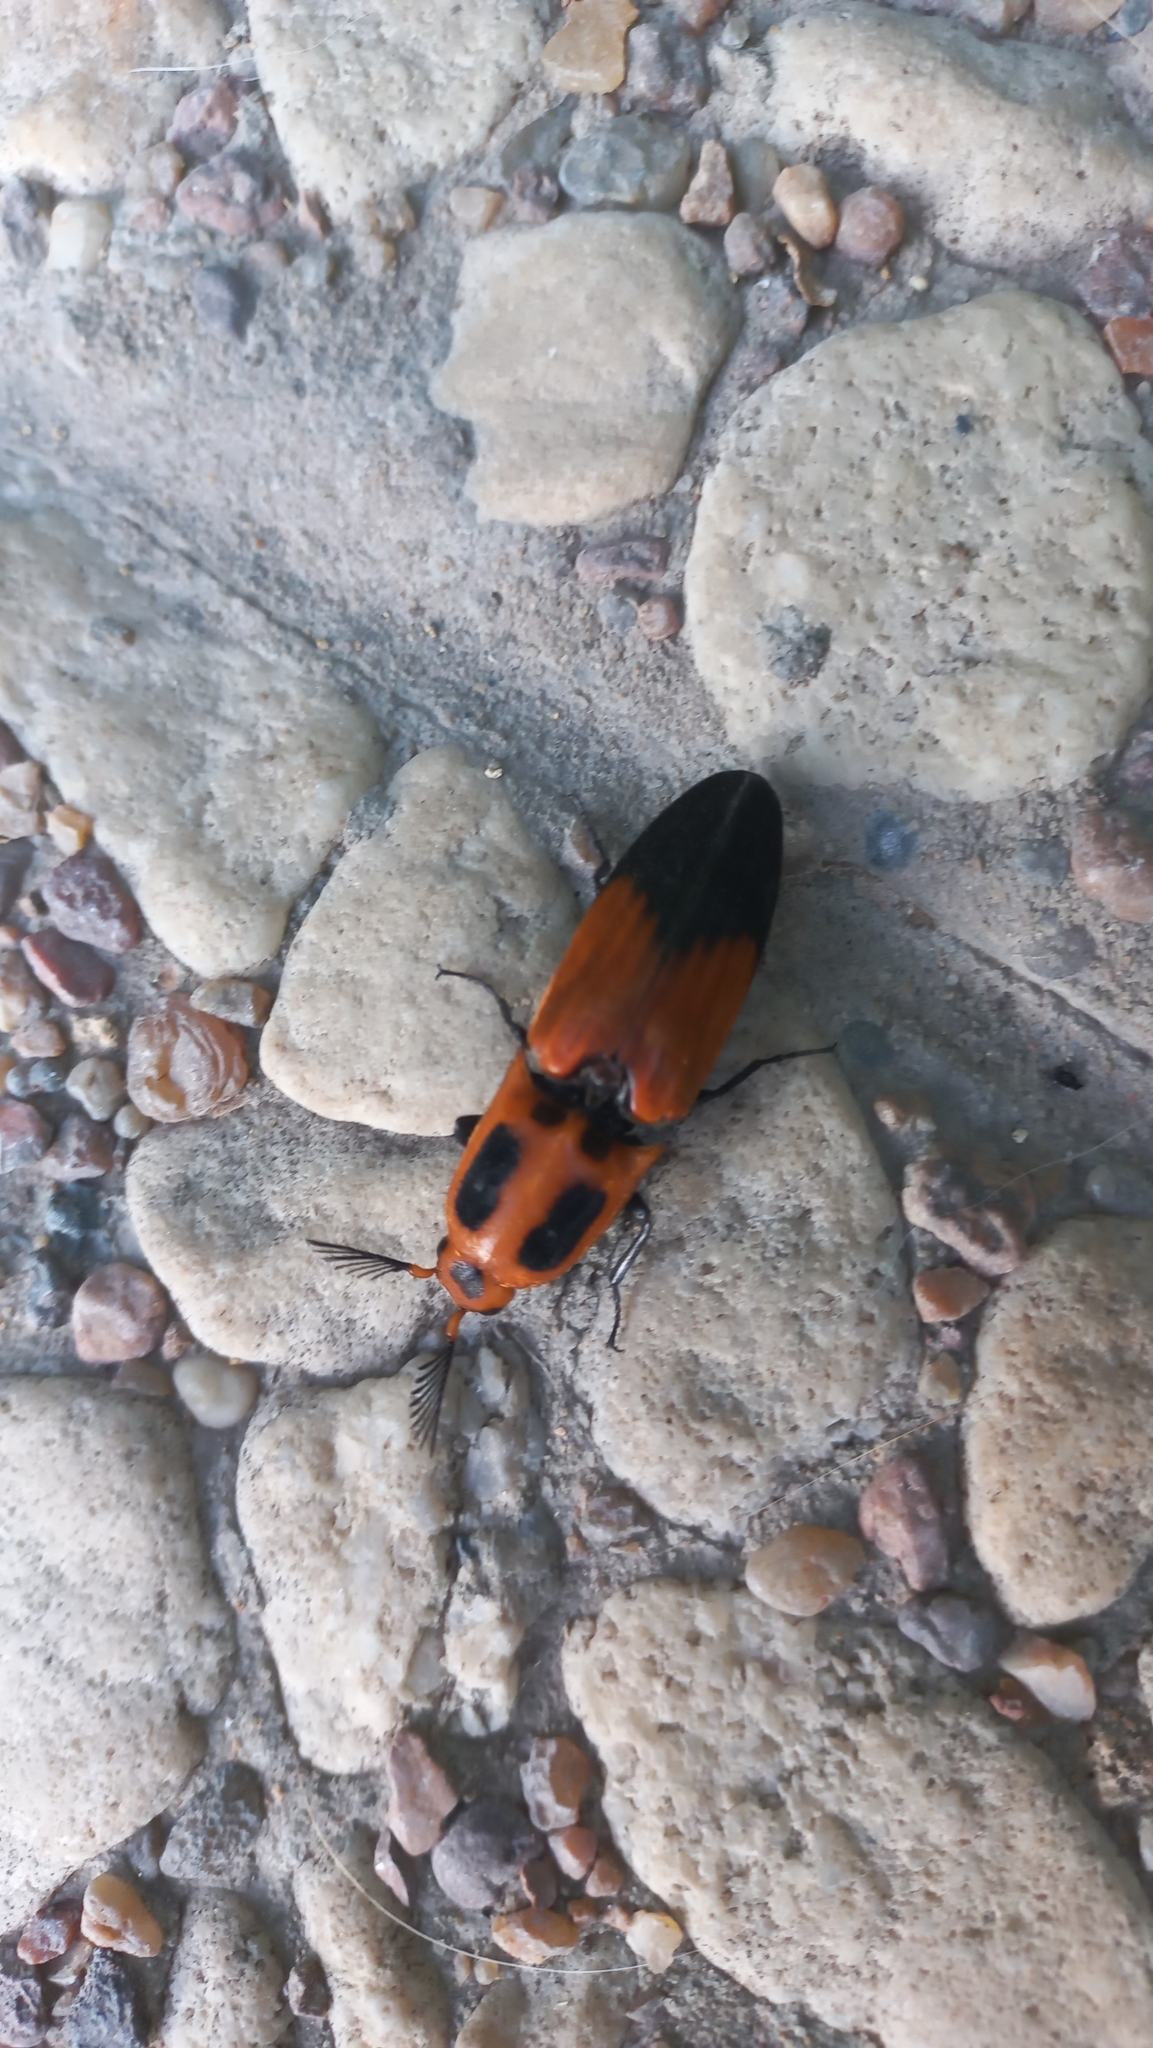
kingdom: Animalia
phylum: Arthropoda
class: Insecta
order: Coleoptera
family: Elateridae
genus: Hemirhipus
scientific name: Hemirhipus
